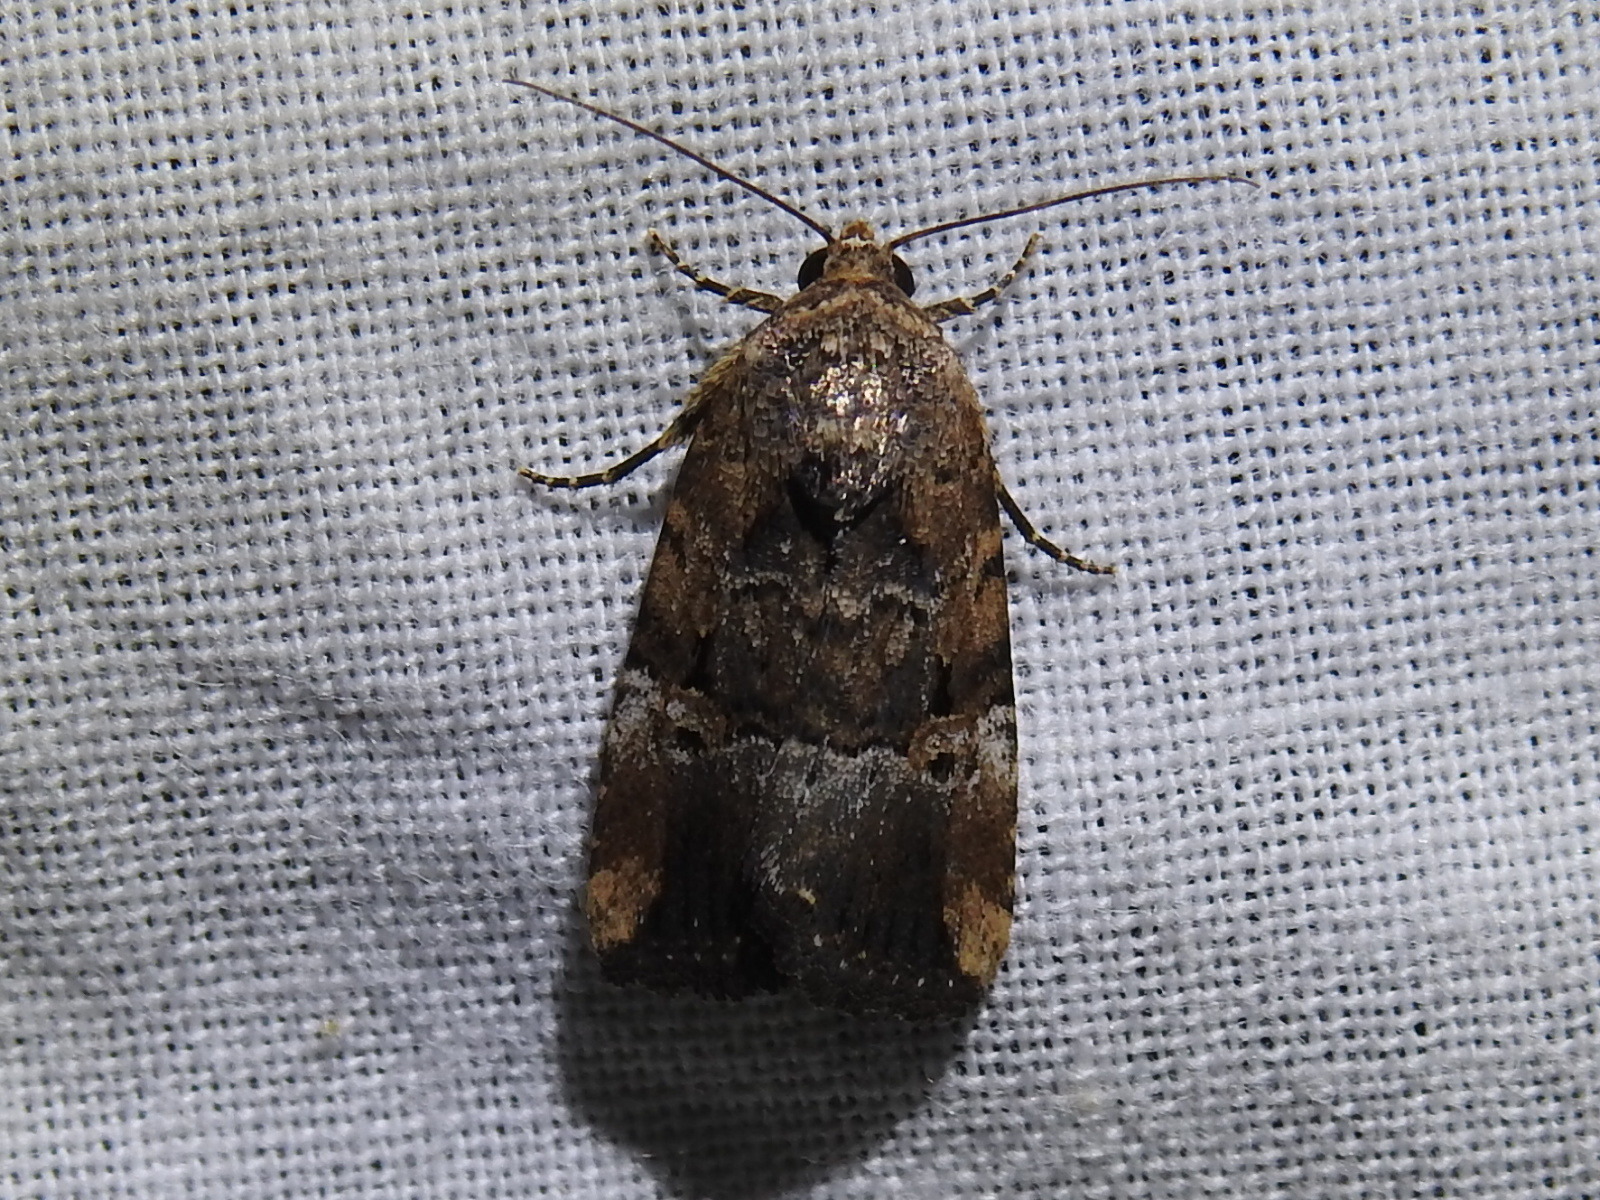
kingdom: Animalia
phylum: Arthropoda
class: Insecta
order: Lepidoptera
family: Noctuidae
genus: Elaphria
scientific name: Elaphria chalcedonia
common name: Chalcedony midget
